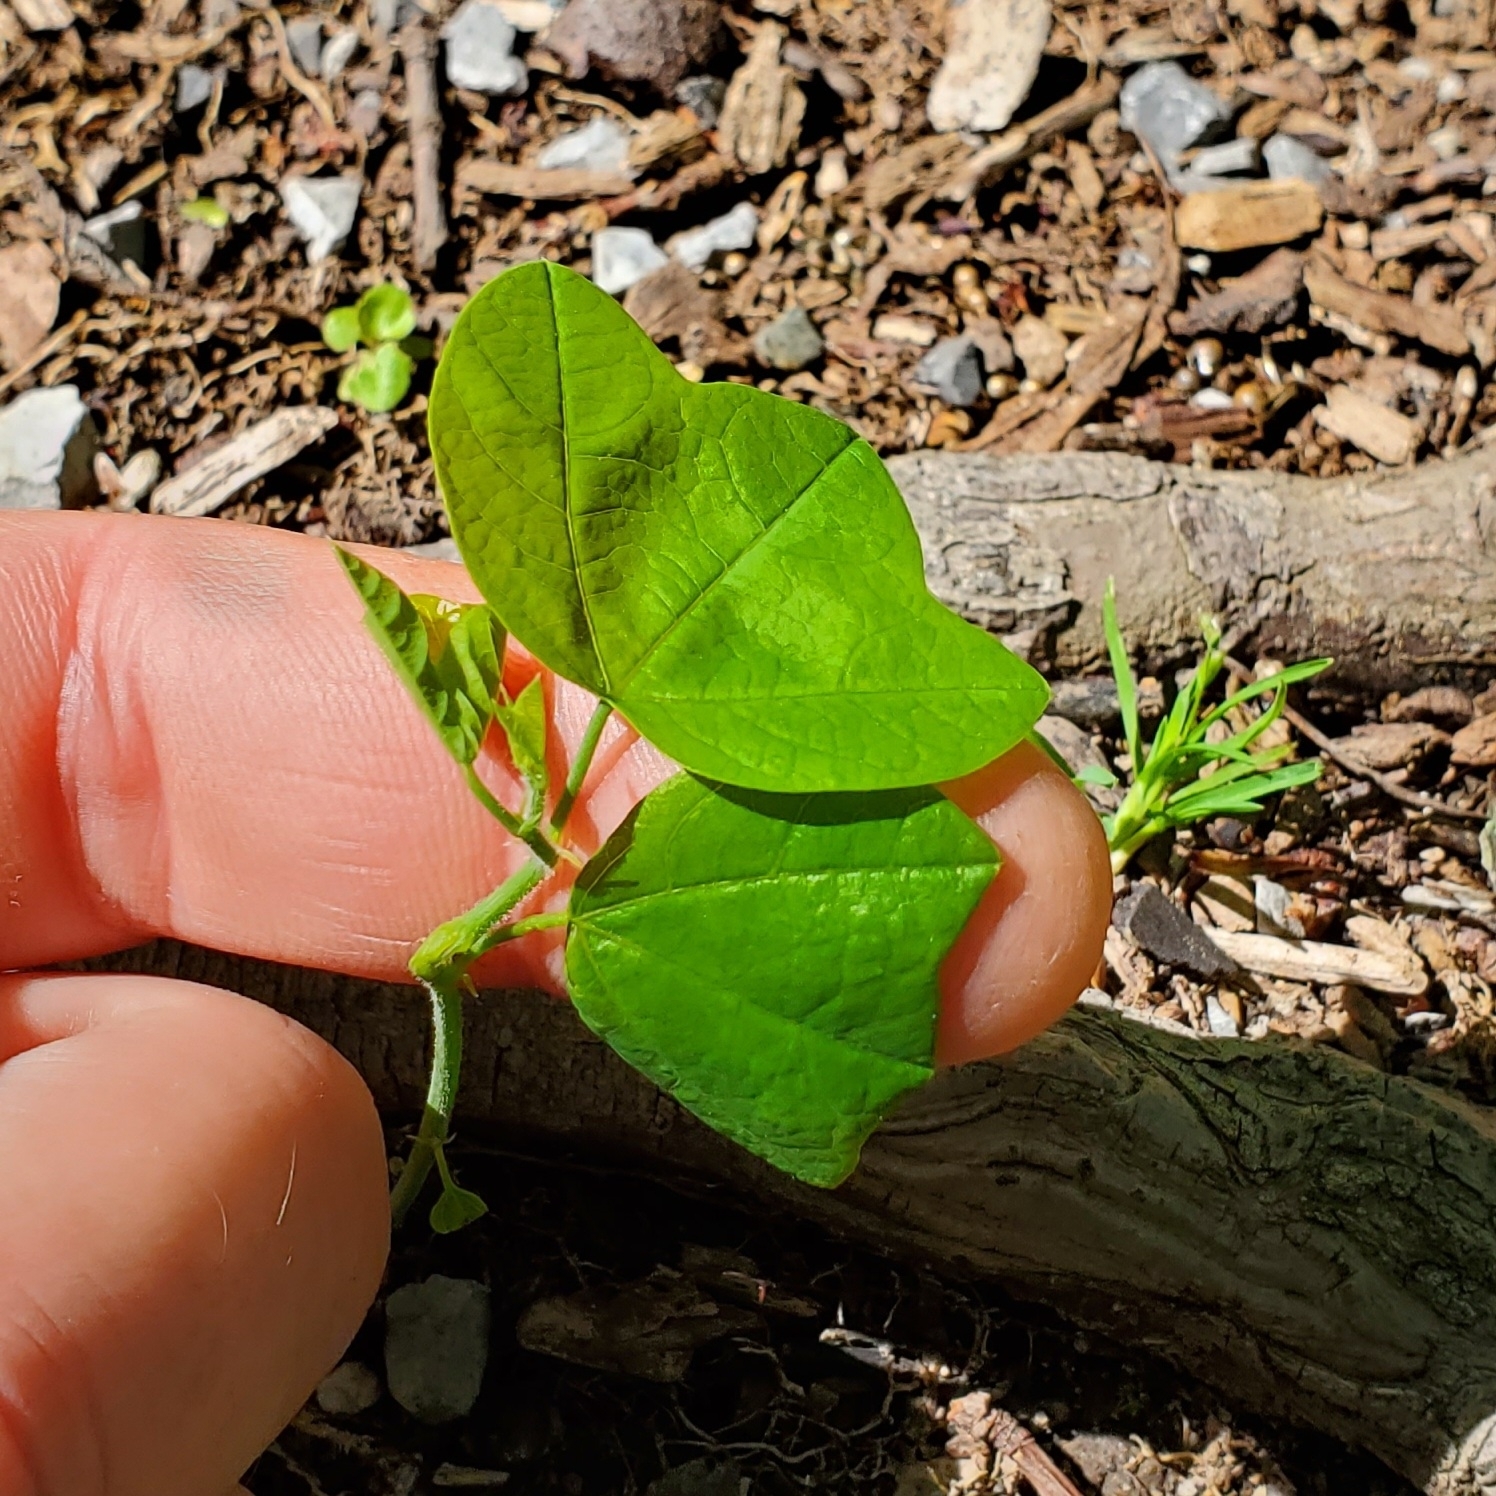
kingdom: Plantae
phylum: Tracheophyta
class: Magnoliopsida
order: Malpighiales
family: Passifloraceae
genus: Passiflora
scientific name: Passiflora lutea
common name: Yellow passionflower
